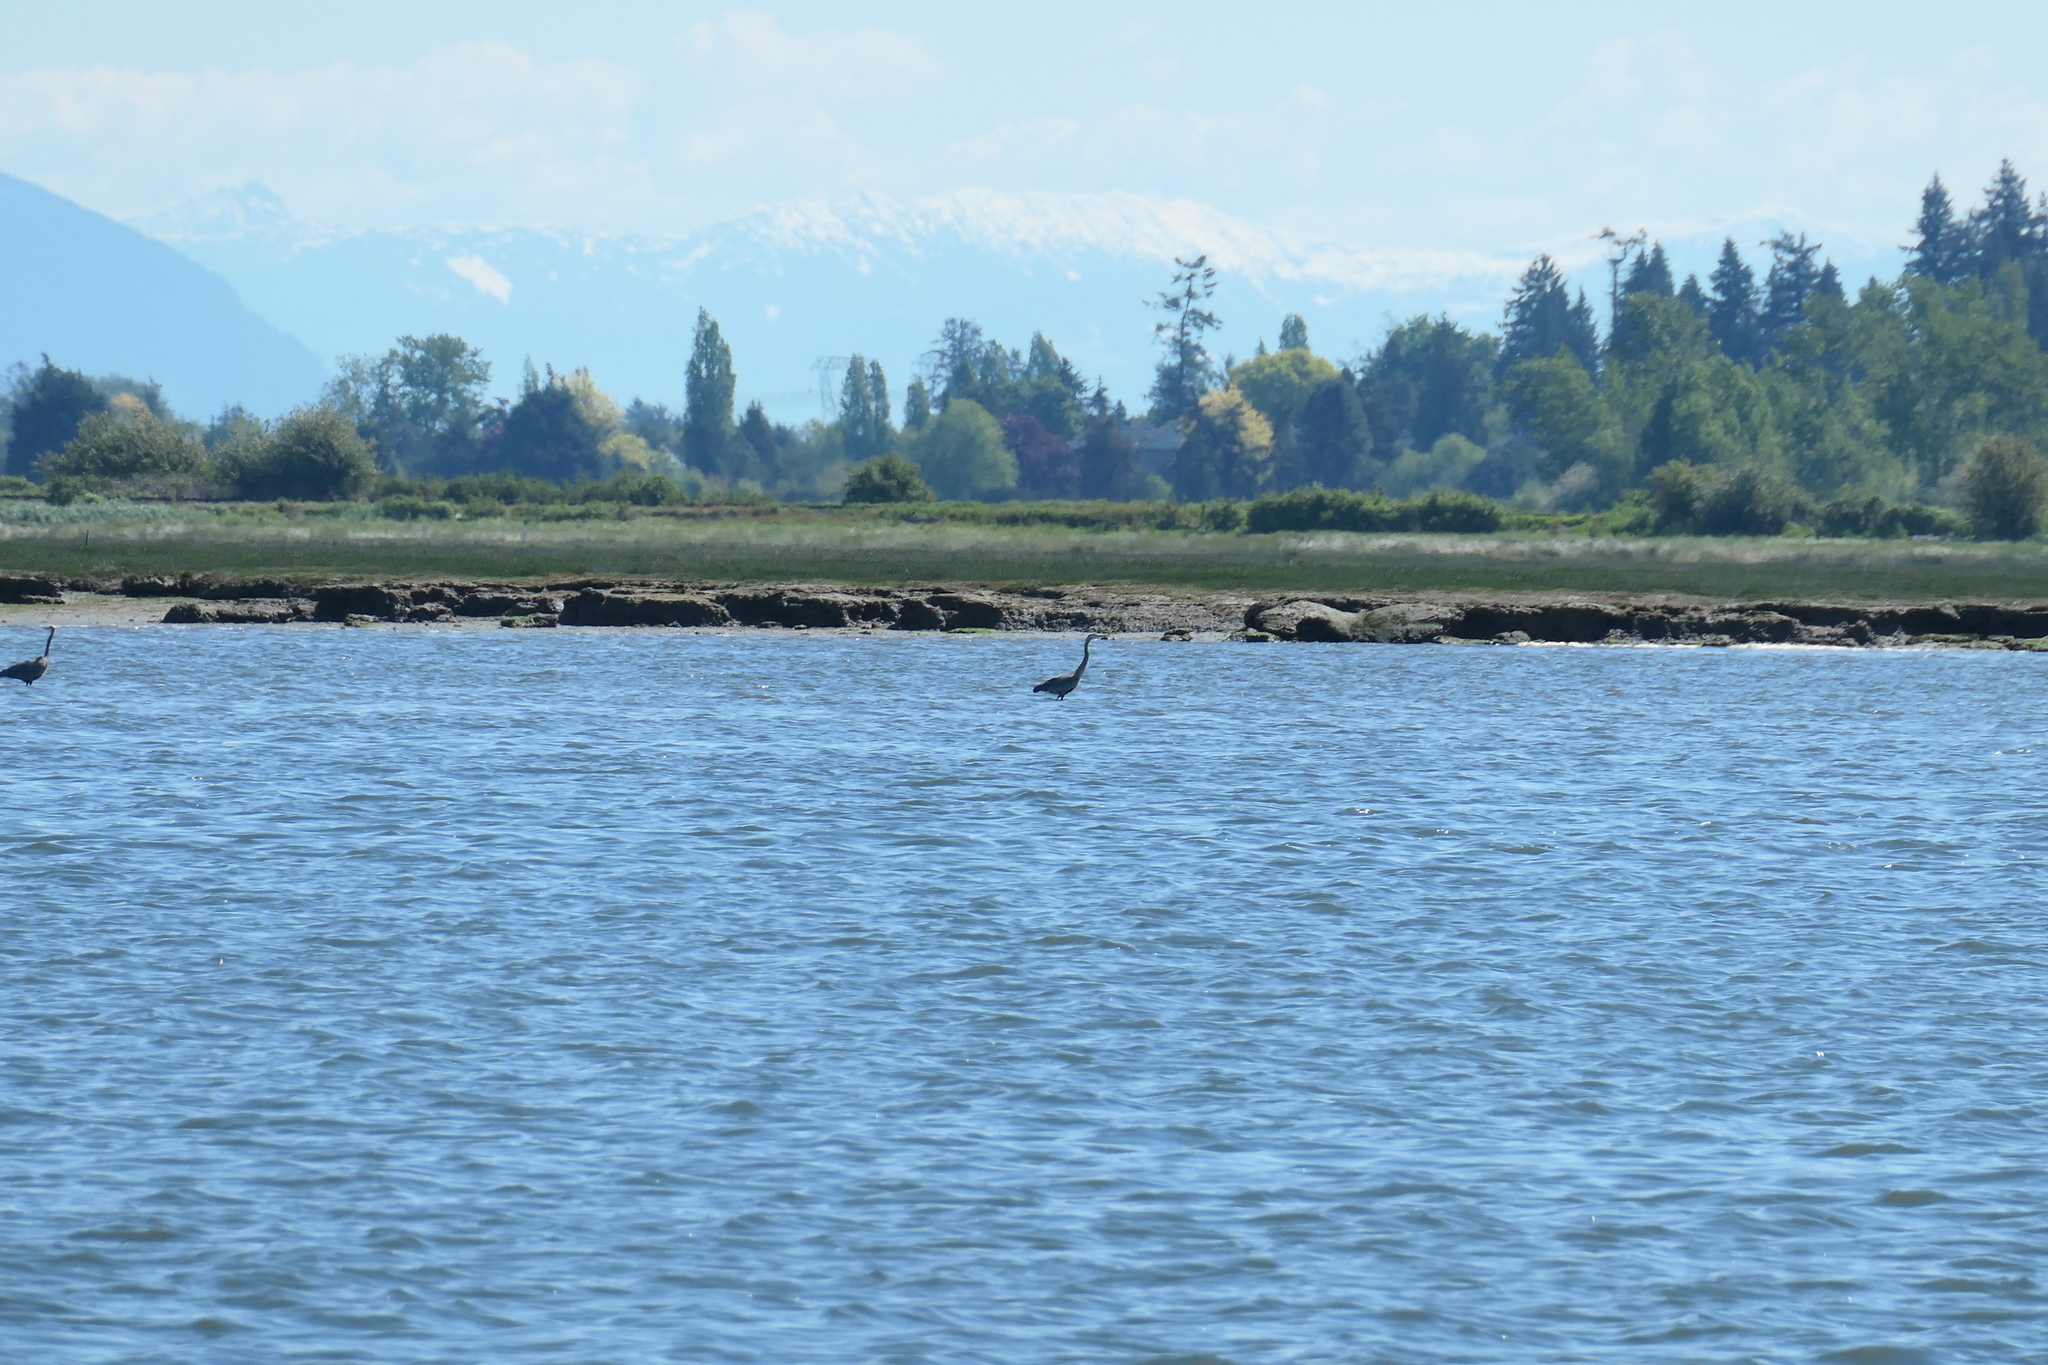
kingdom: Animalia
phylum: Chordata
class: Aves
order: Pelecaniformes
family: Ardeidae
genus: Ardea
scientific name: Ardea herodias
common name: Great blue heron
